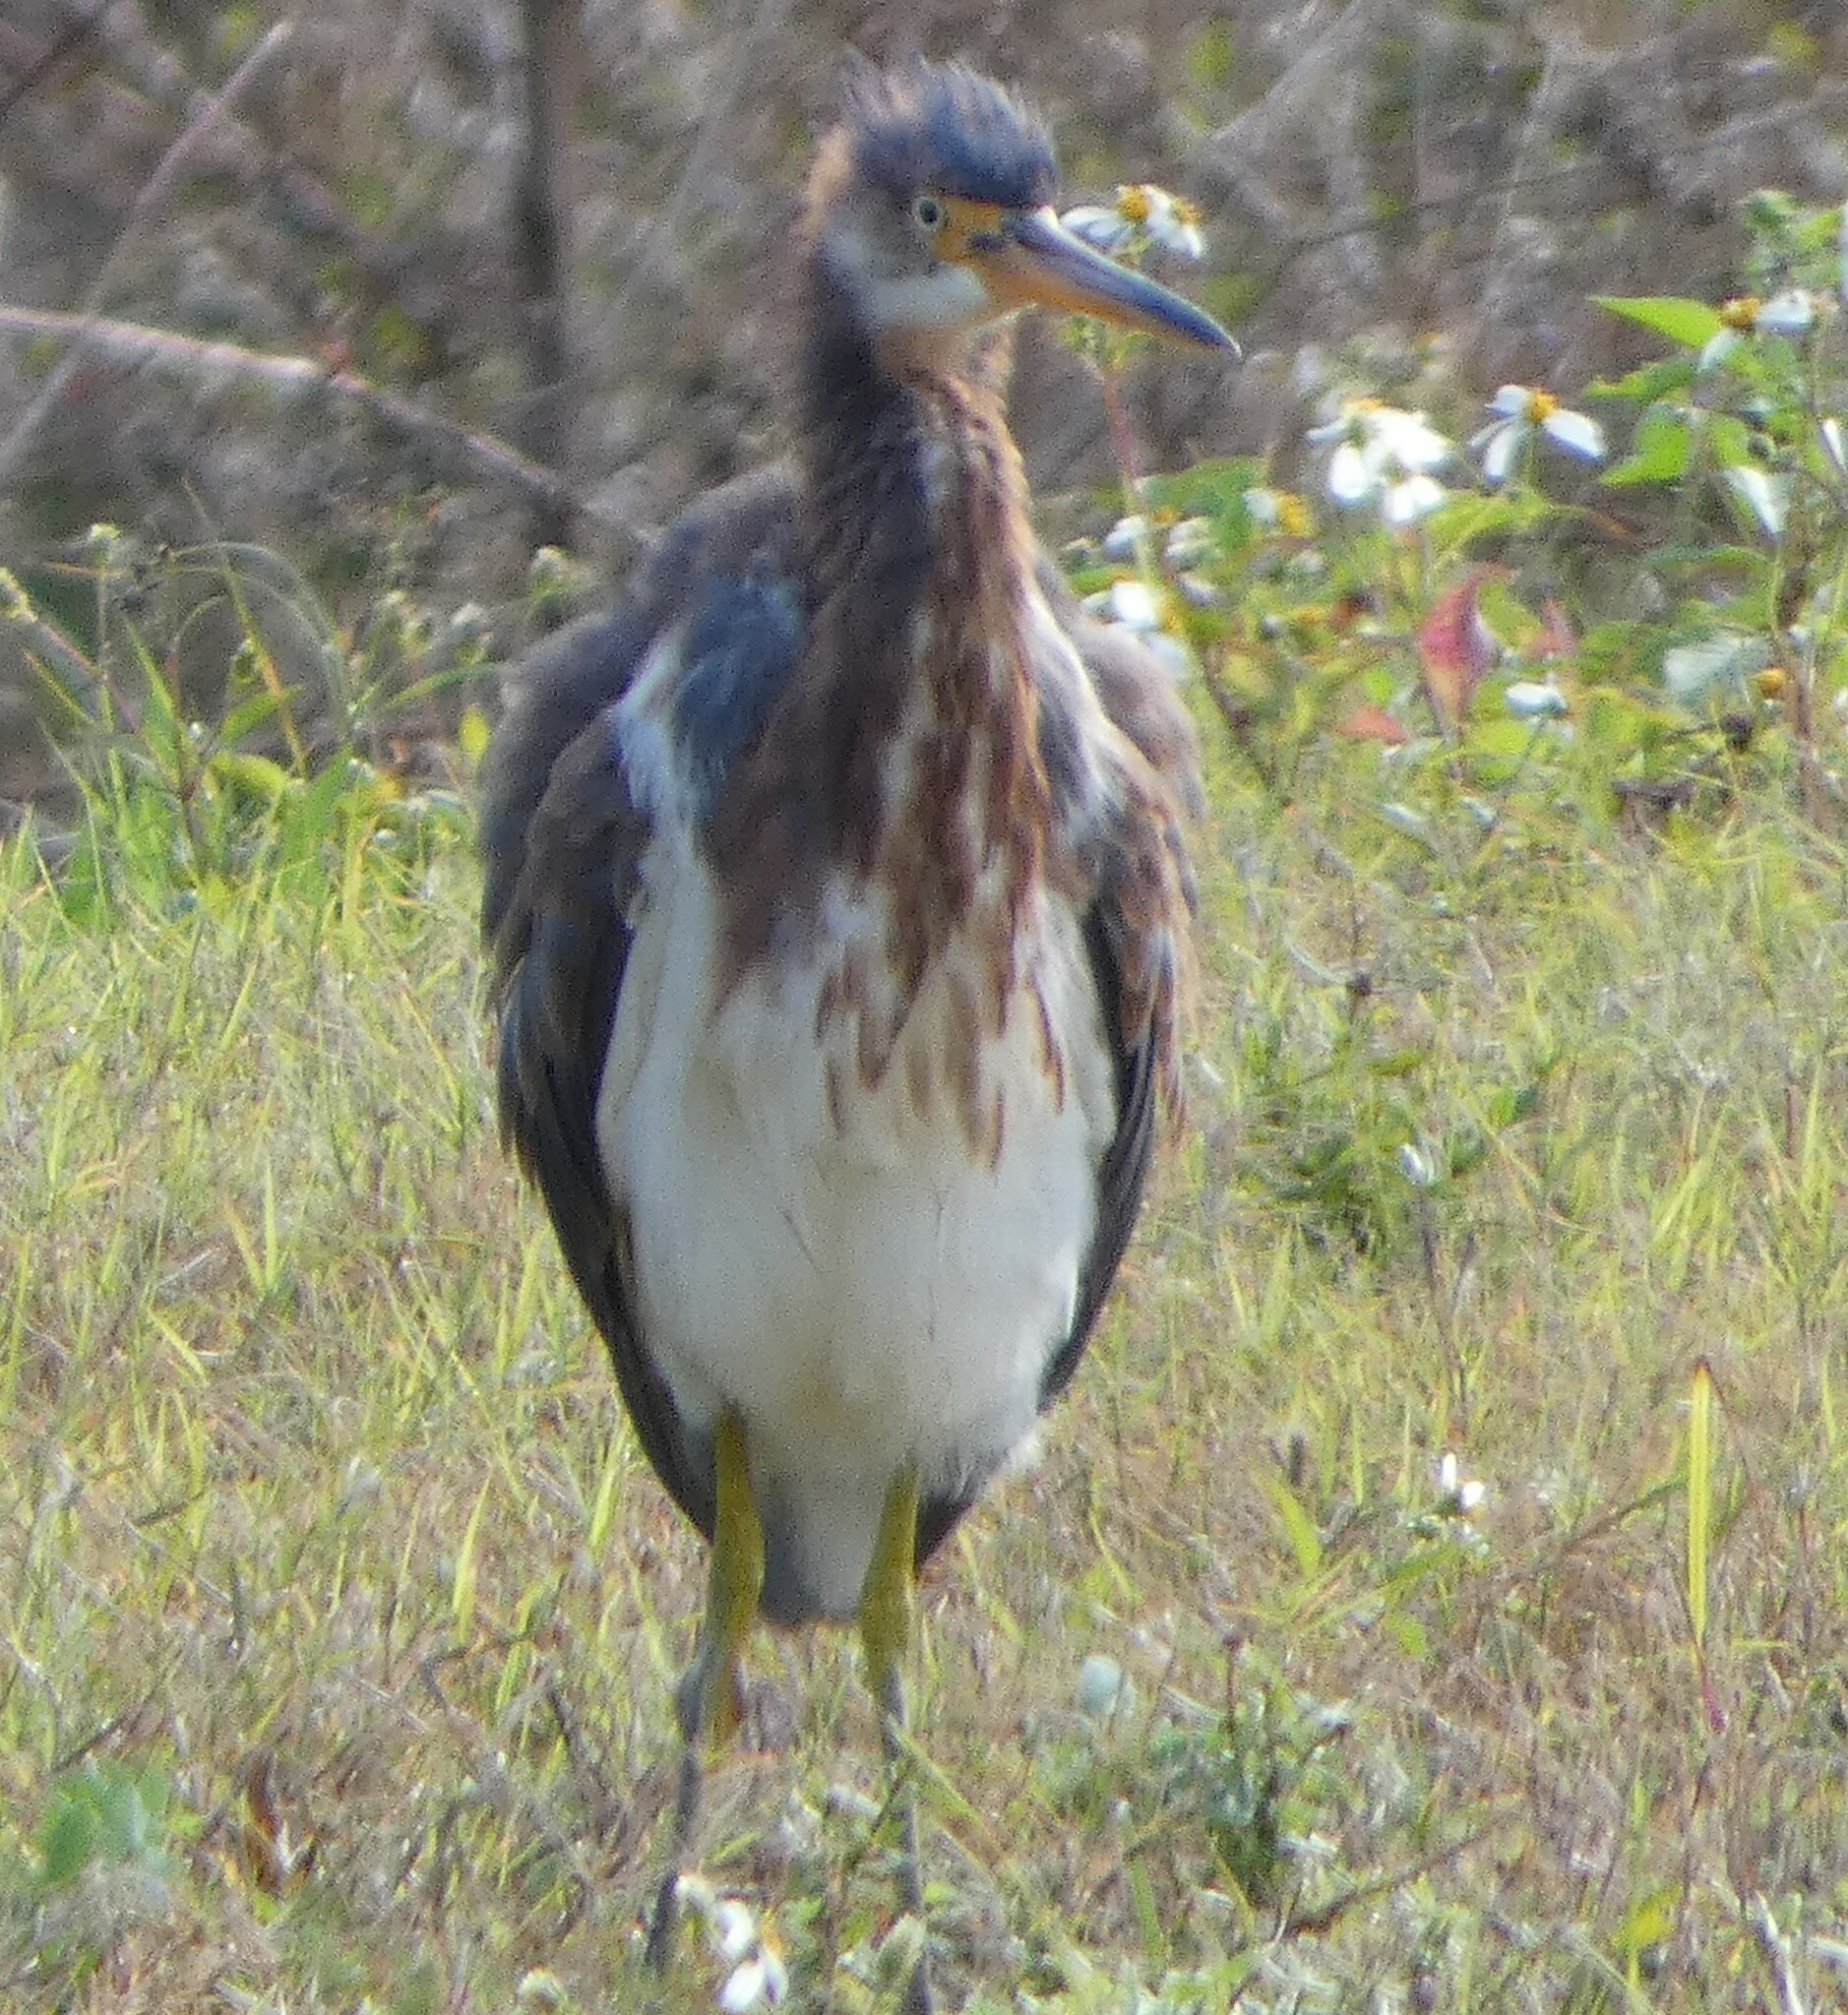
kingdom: Animalia
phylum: Chordata
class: Aves
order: Pelecaniformes
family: Ardeidae
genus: Egretta
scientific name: Egretta tricolor
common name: Tricolored heron
